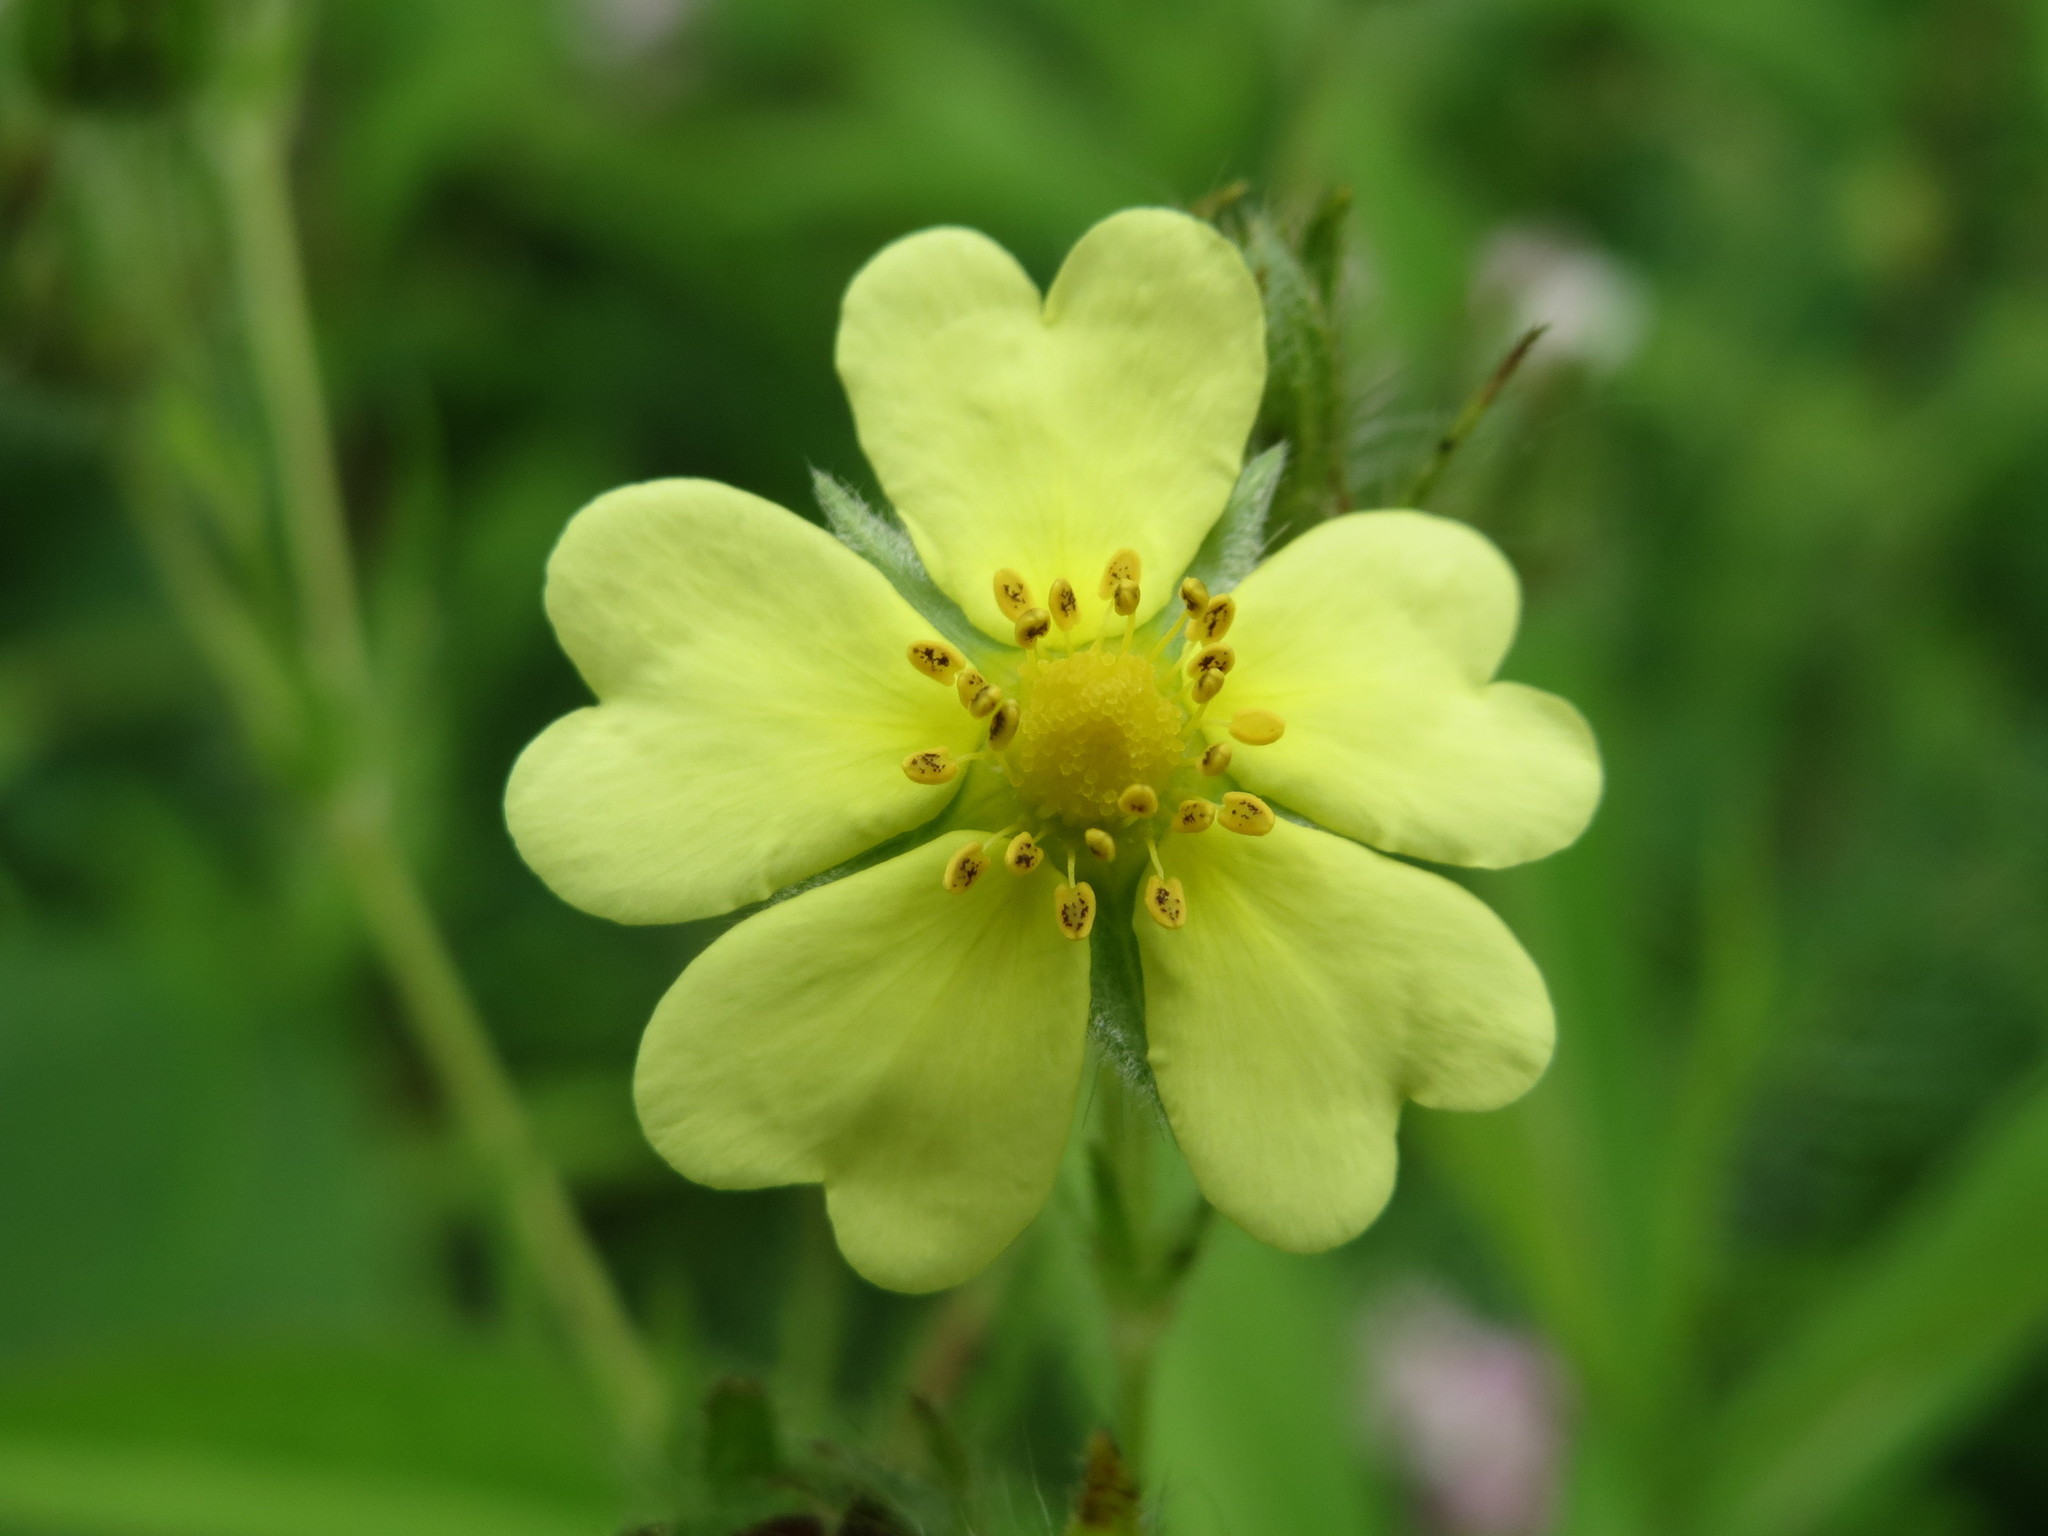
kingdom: Plantae
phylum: Tracheophyta
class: Magnoliopsida
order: Rosales
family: Rosaceae
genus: Potentilla
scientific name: Potentilla recta
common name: Sulphur cinquefoil
